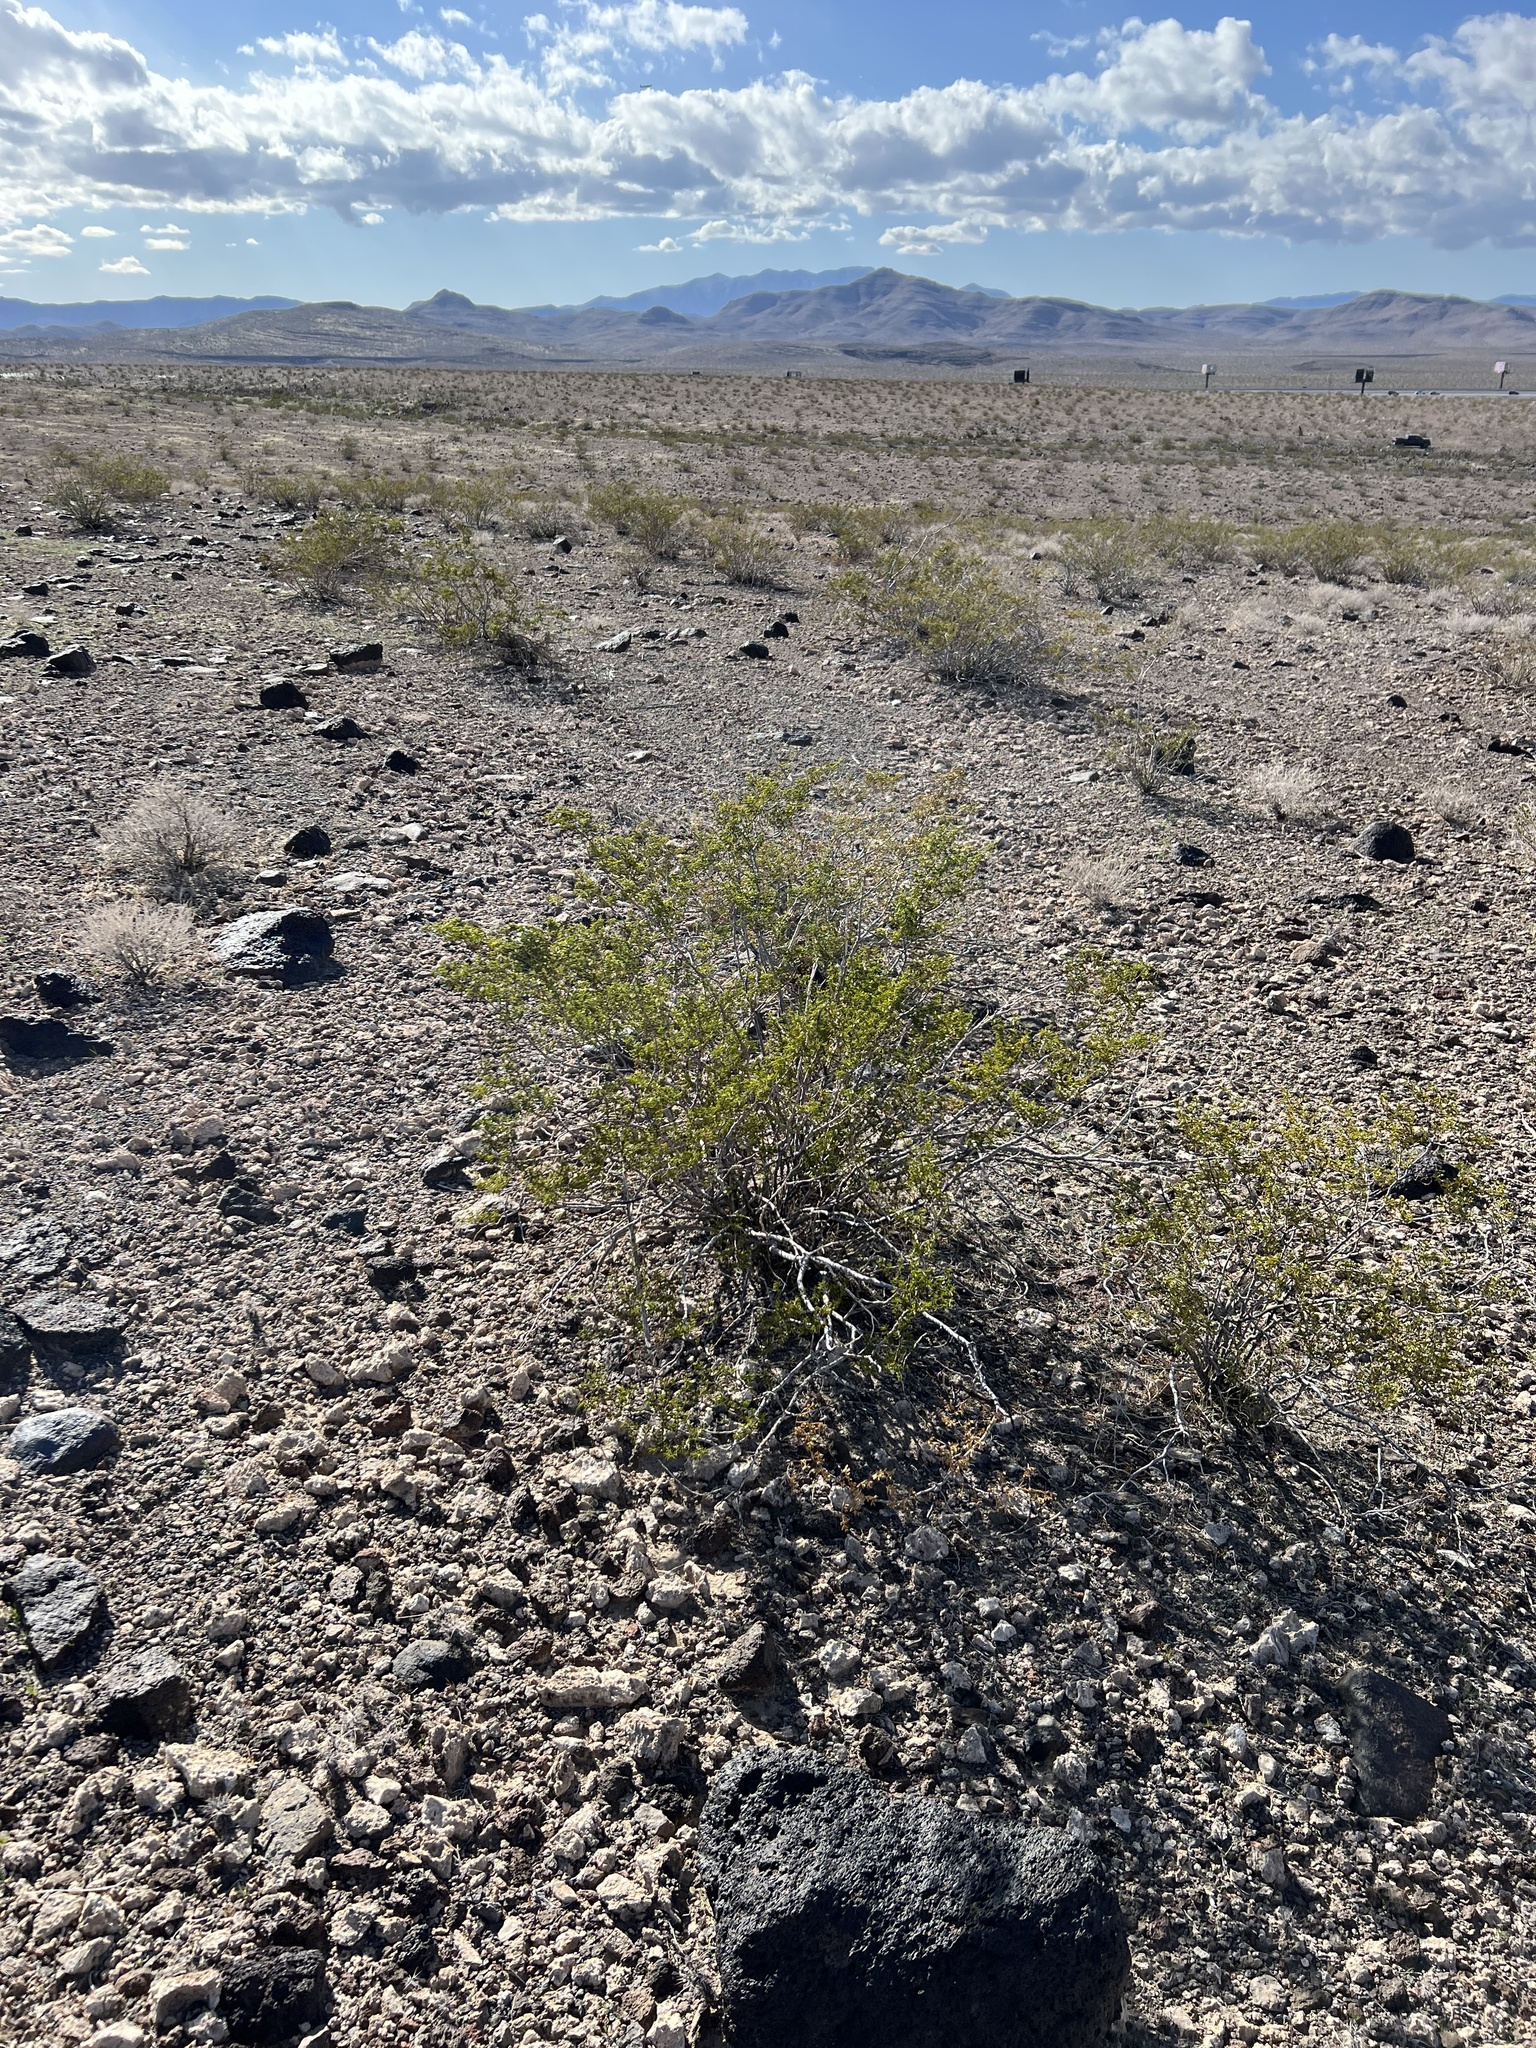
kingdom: Plantae
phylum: Tracheophyta
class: Magnoliopsida
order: Zygophyllales
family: Zygophyllaceae
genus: Larrea
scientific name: Larrea tridentata
